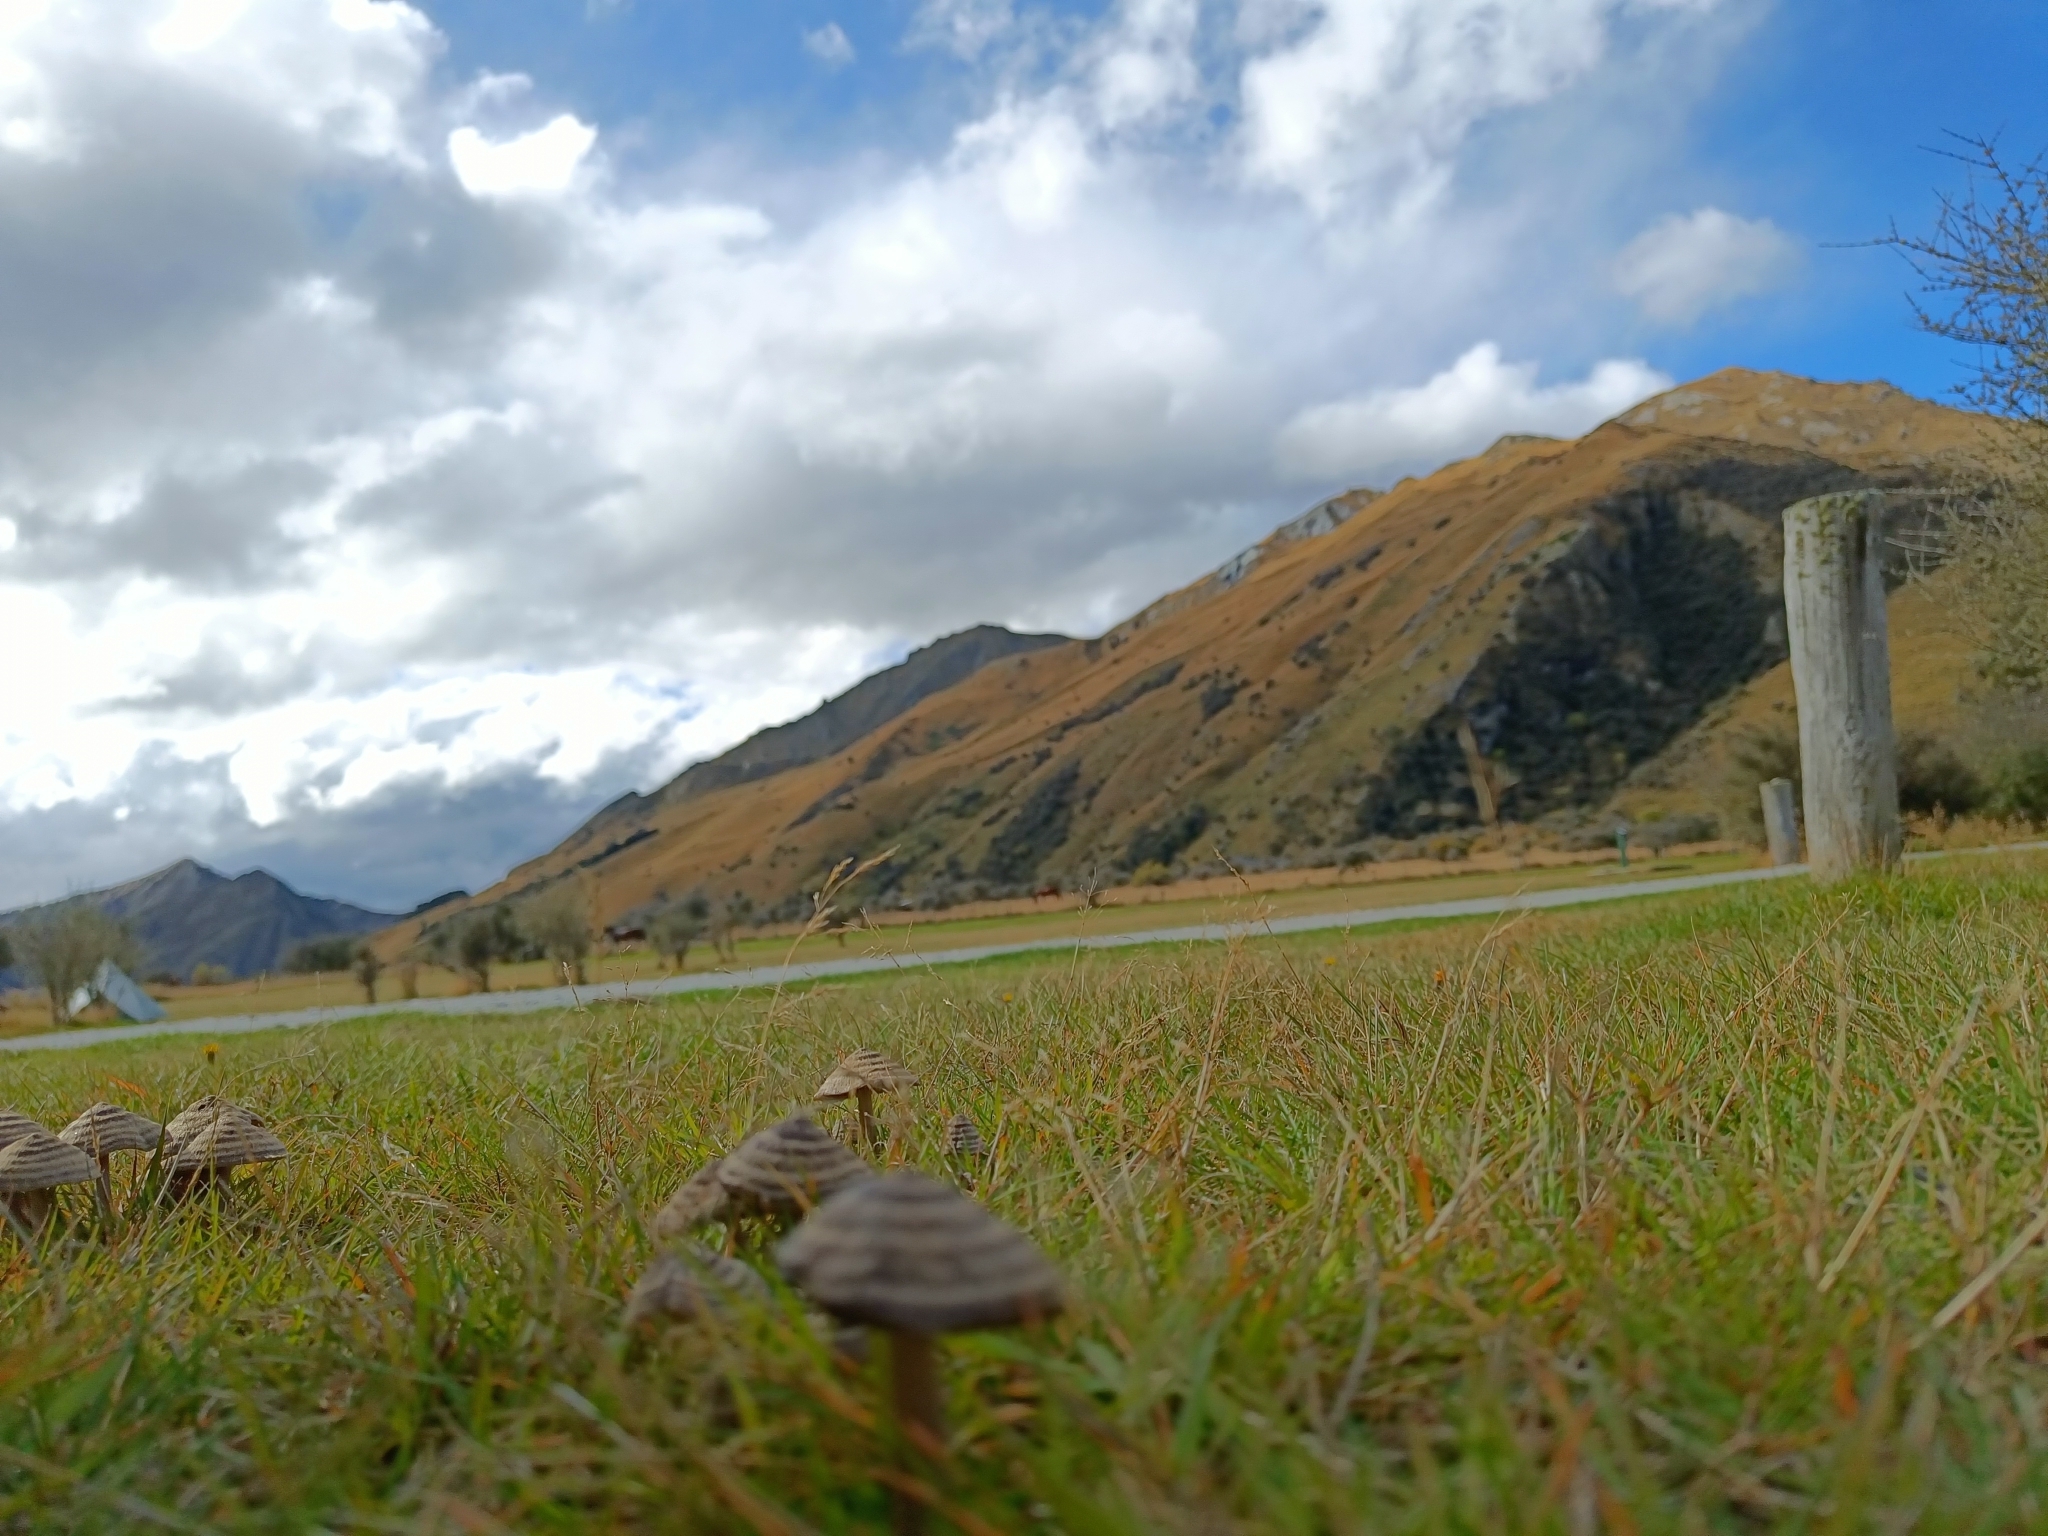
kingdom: Fungi
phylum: Basidiomycota
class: Agaricomycetes
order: Agaricales
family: Entolomataceae
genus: Entoloma
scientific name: Entoloma perzonatum
